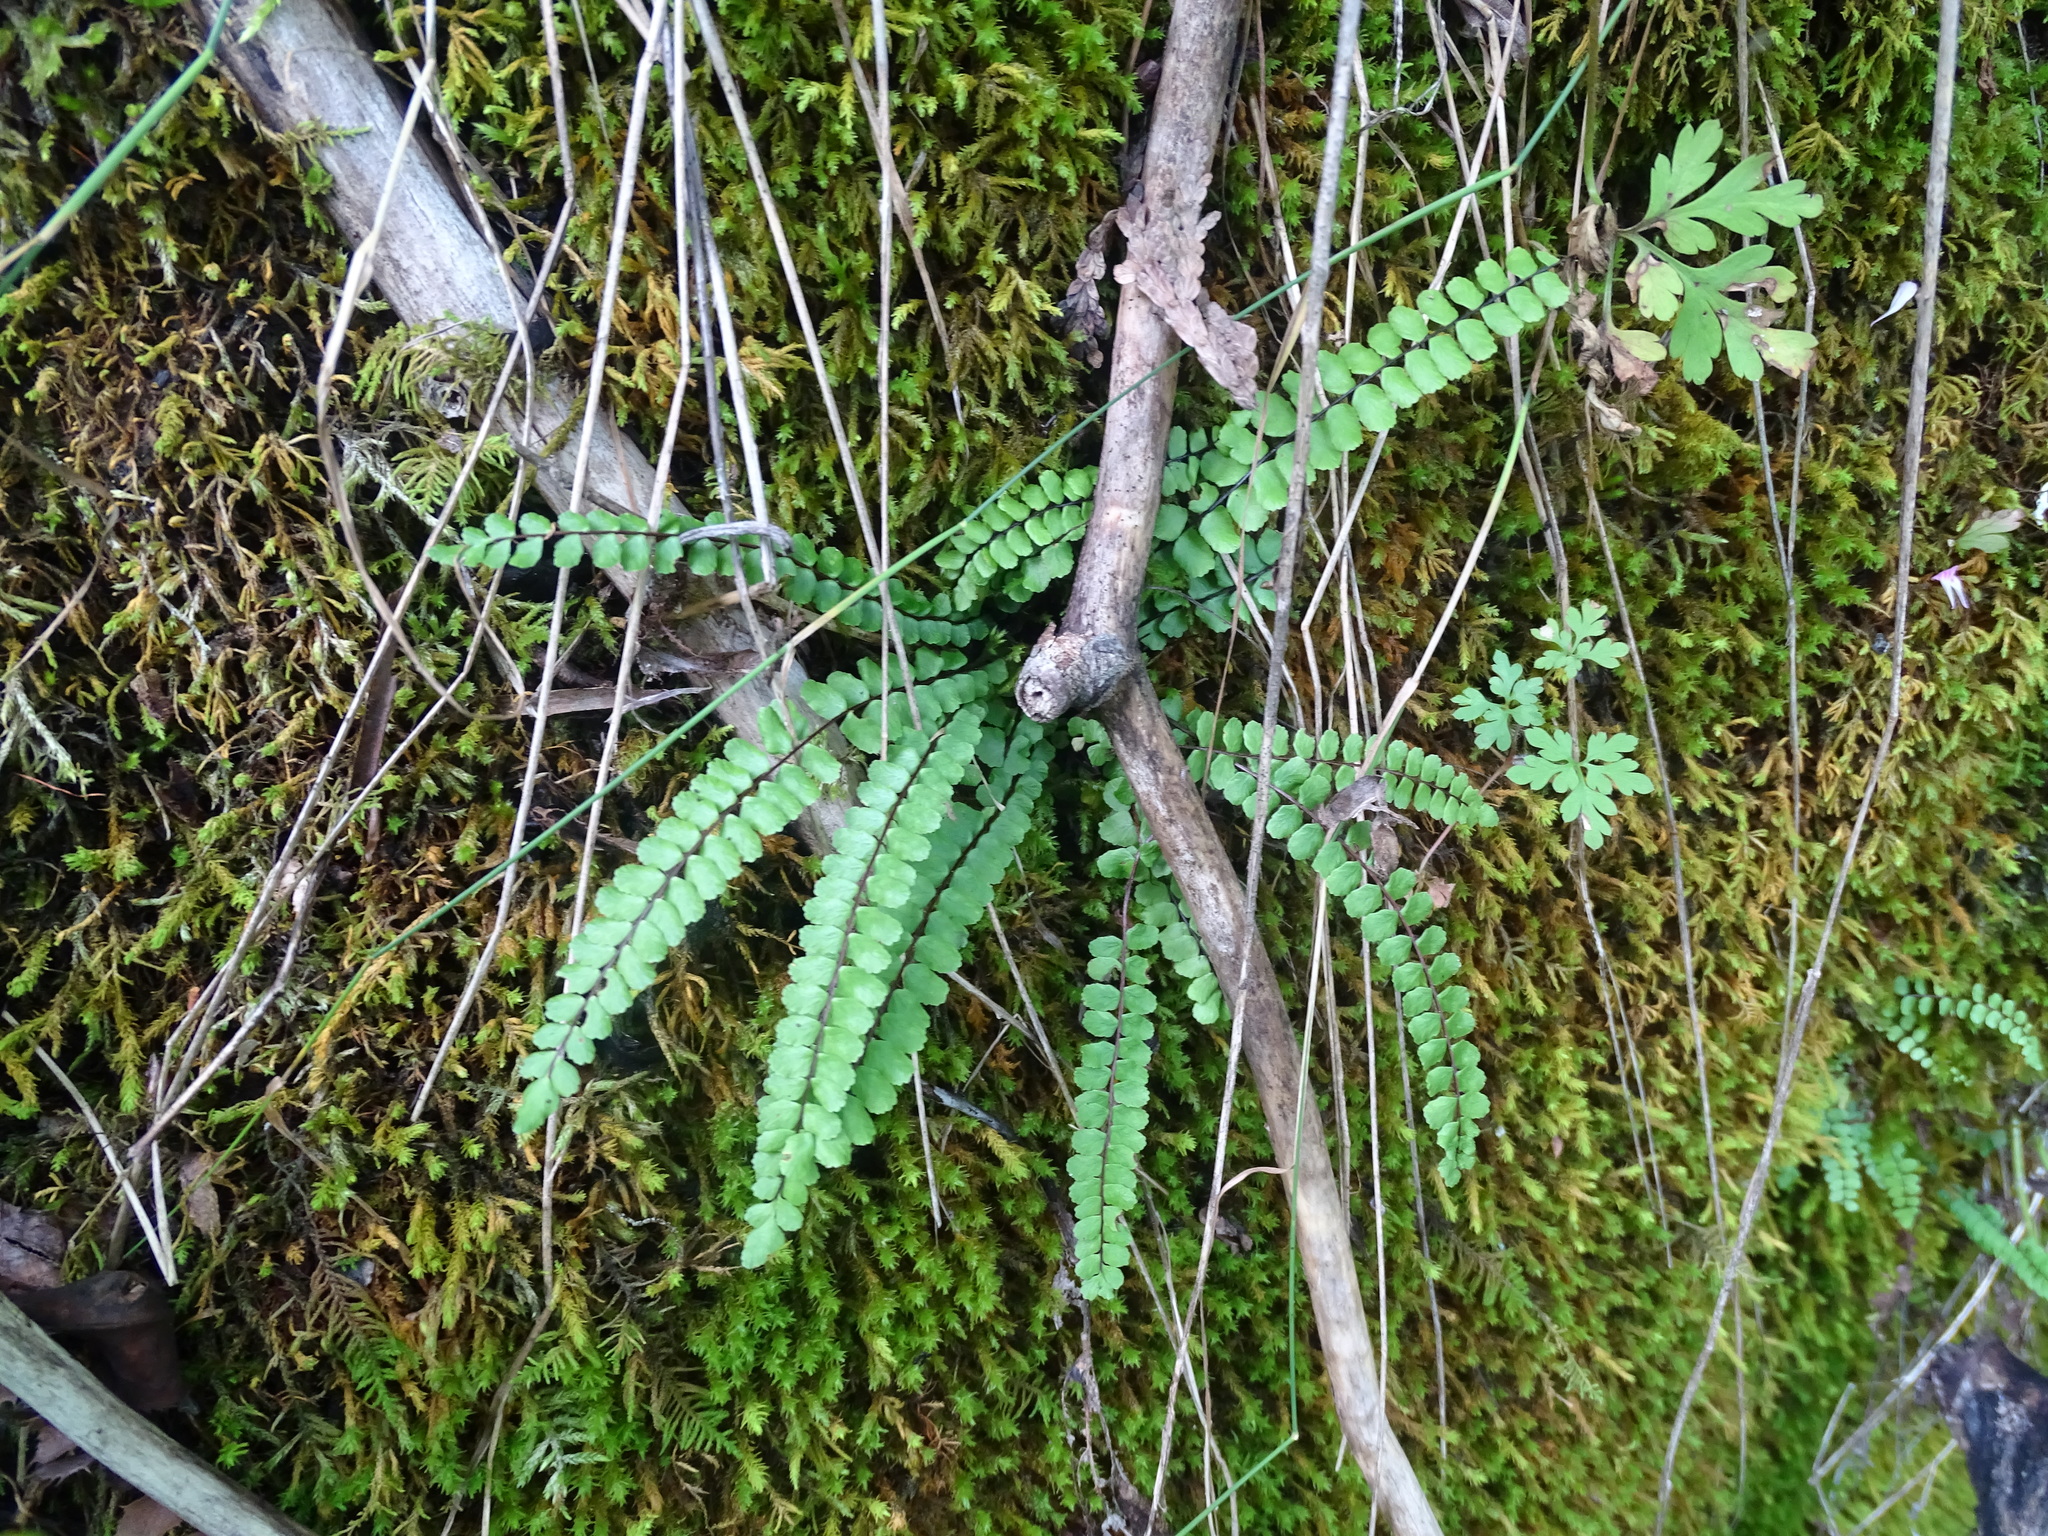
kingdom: Plantae
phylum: Tracheophyta
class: Polypodiopsida
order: Polypodiales
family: Aspleniaceae
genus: Asplenium
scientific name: Asplenium trichomanes
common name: Maidenhair spleenwort
